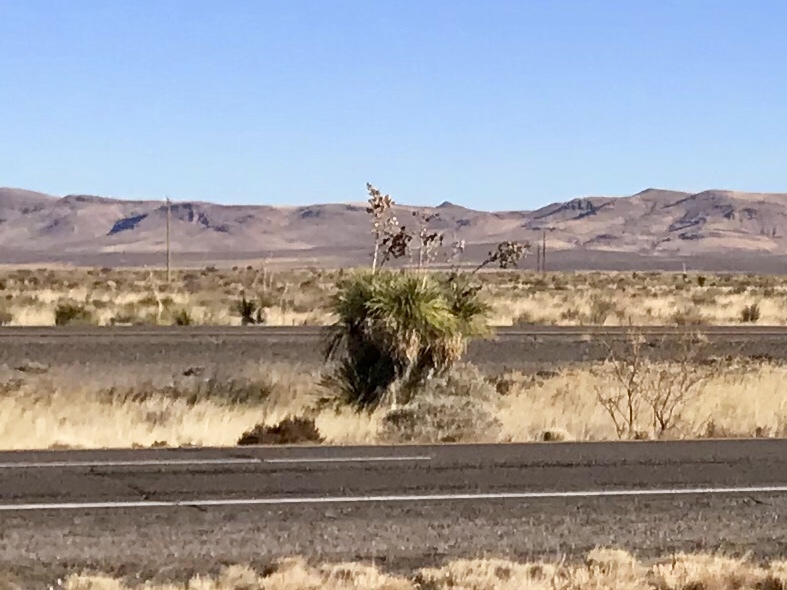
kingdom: Plantae
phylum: Tracheophyta
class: Liliopsida
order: Asparagales
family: Asparagaceae
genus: Yucca
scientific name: Yucca elata
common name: Palmella
